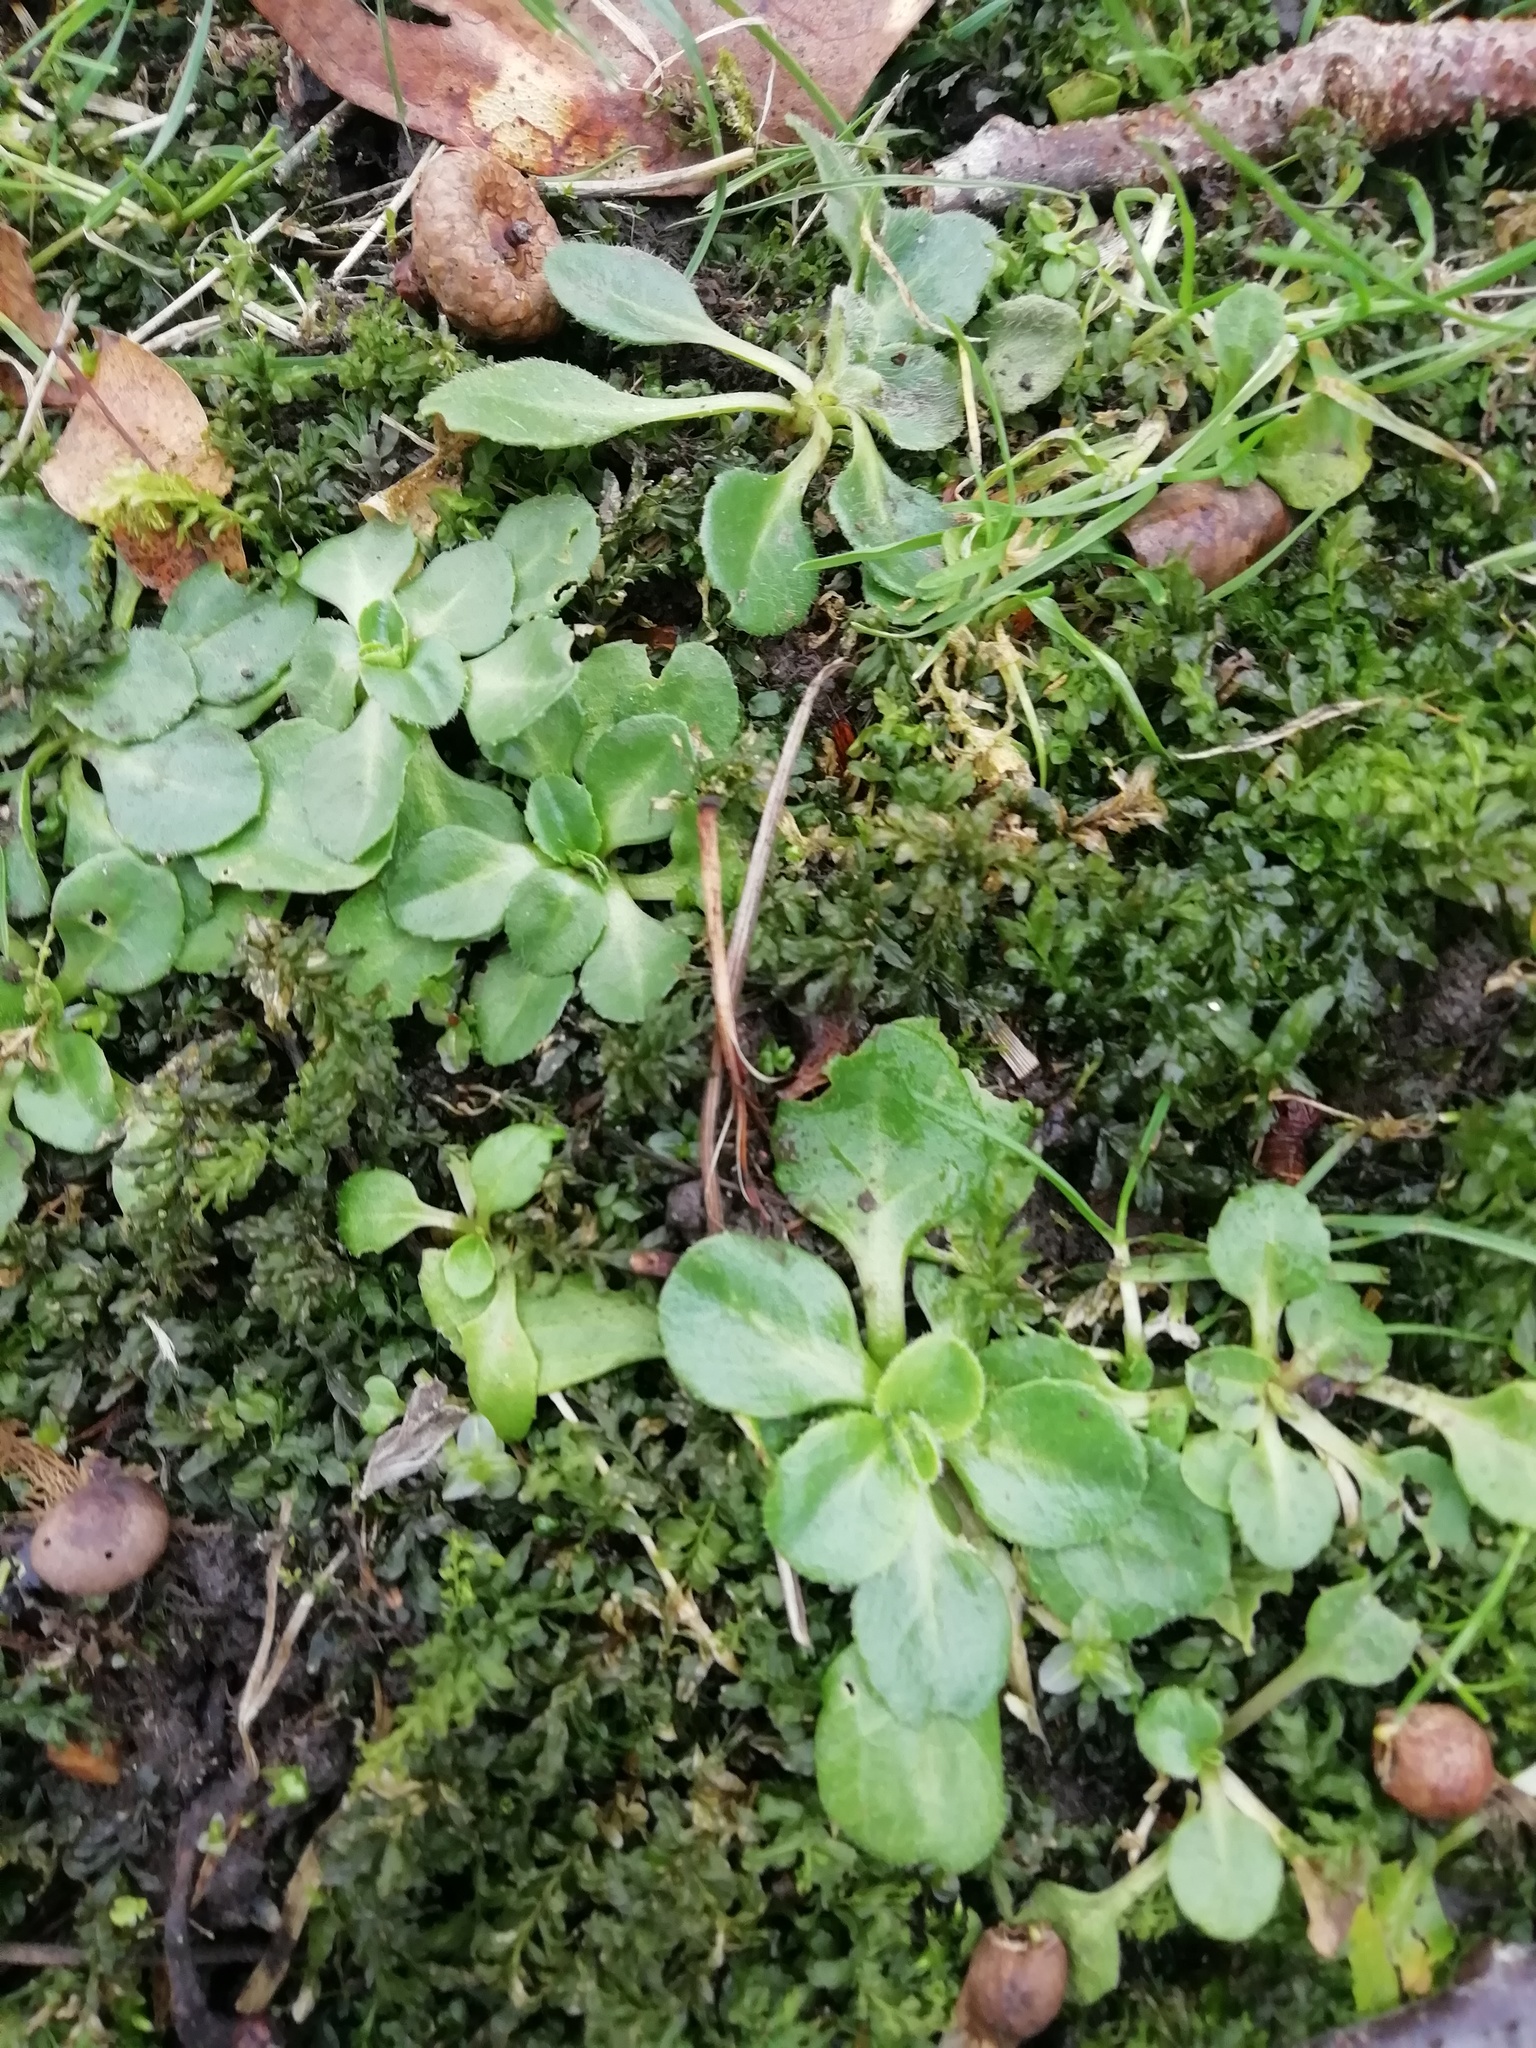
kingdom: Plantae
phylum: Tracheophyta
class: Magnoliopsida
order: Asterales
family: Asteraceae
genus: Bellis
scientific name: Bellis perennis
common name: Lawndaisy
